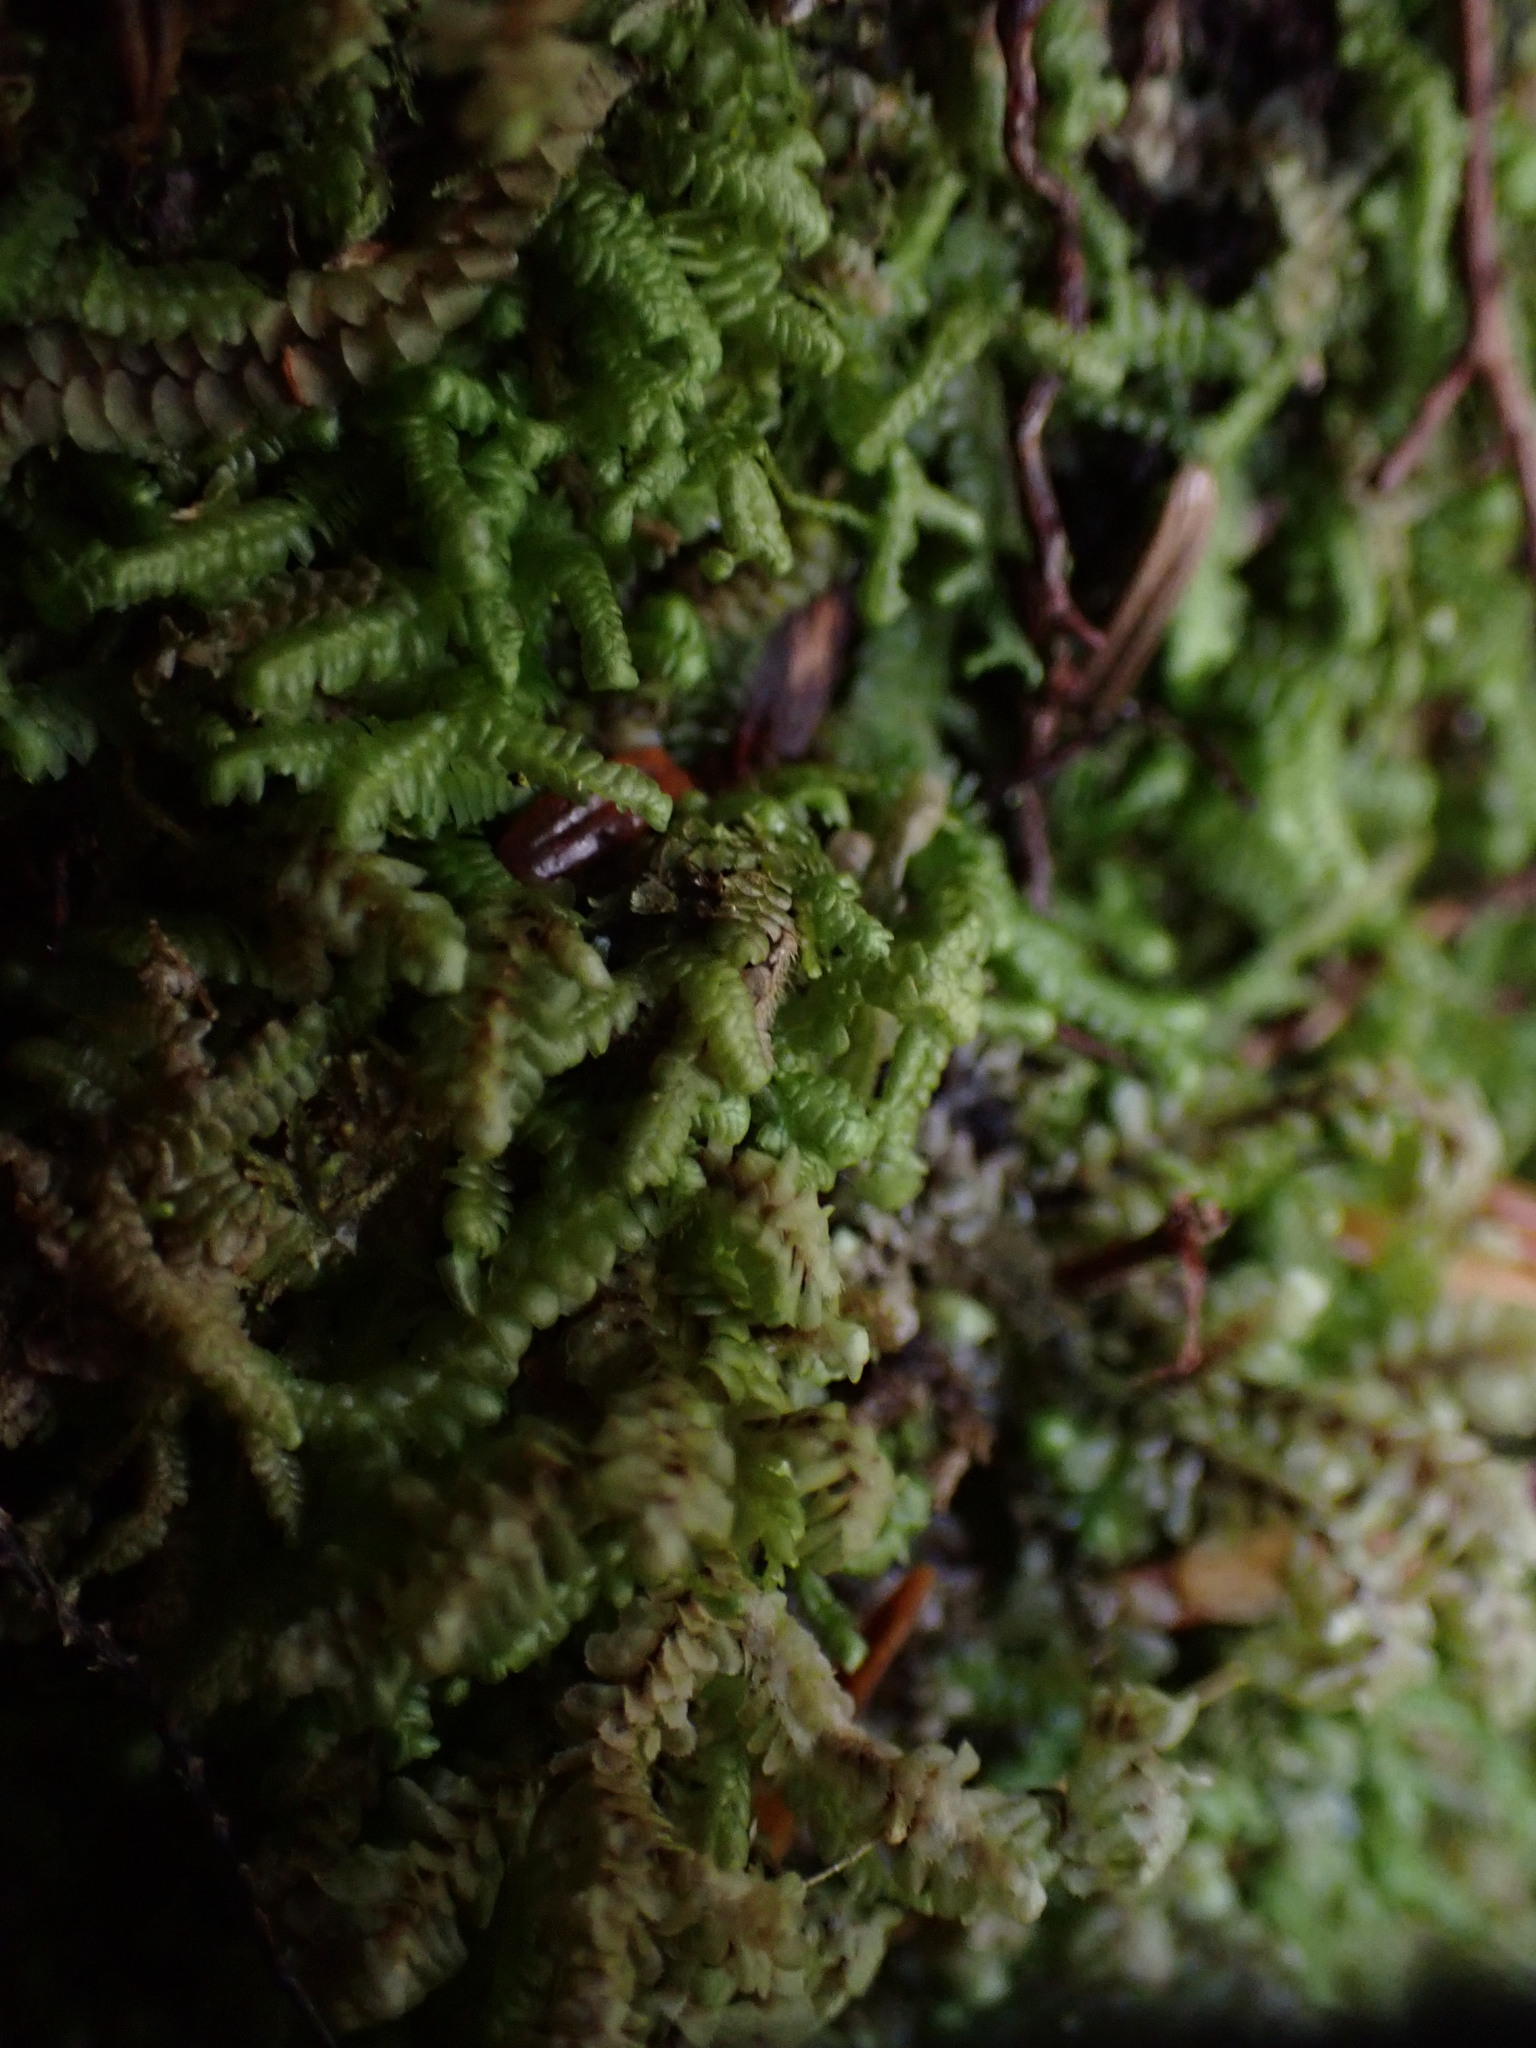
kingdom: Plantae
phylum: Marchantiophyta
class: Jungermanniopsida
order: Jungermanniales
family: Lepidoziaceae
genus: Bazzania
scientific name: Bazzania denudata
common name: Naked whipwort
